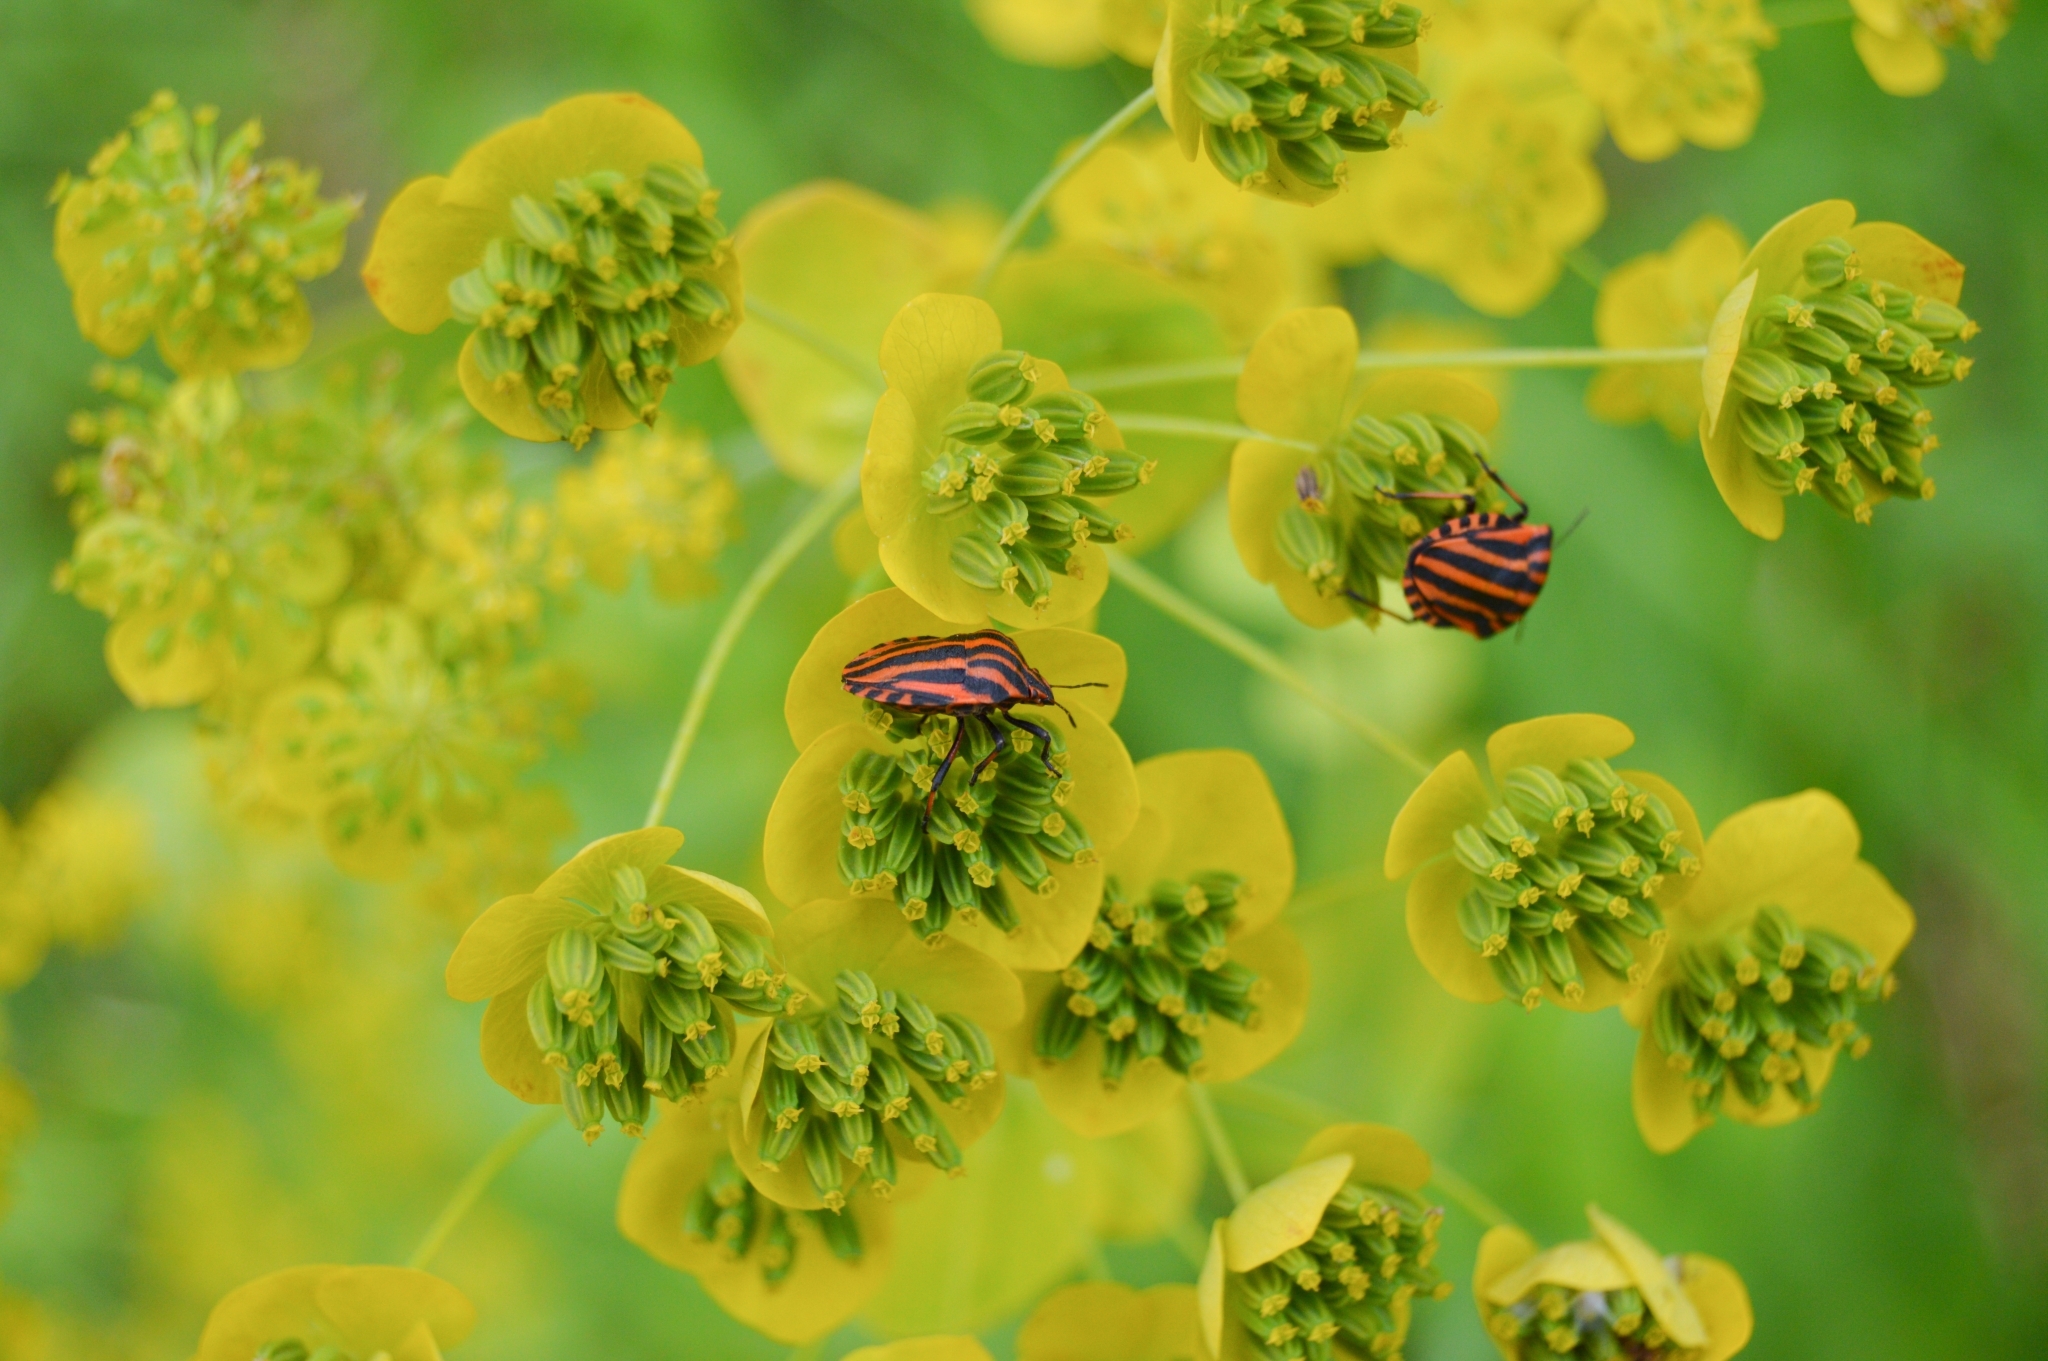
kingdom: Animalia
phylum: Arthropoda
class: Insecta
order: Hemiptera
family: Pentatomidae
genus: Graphosoma
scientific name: Graphosoma italicum
